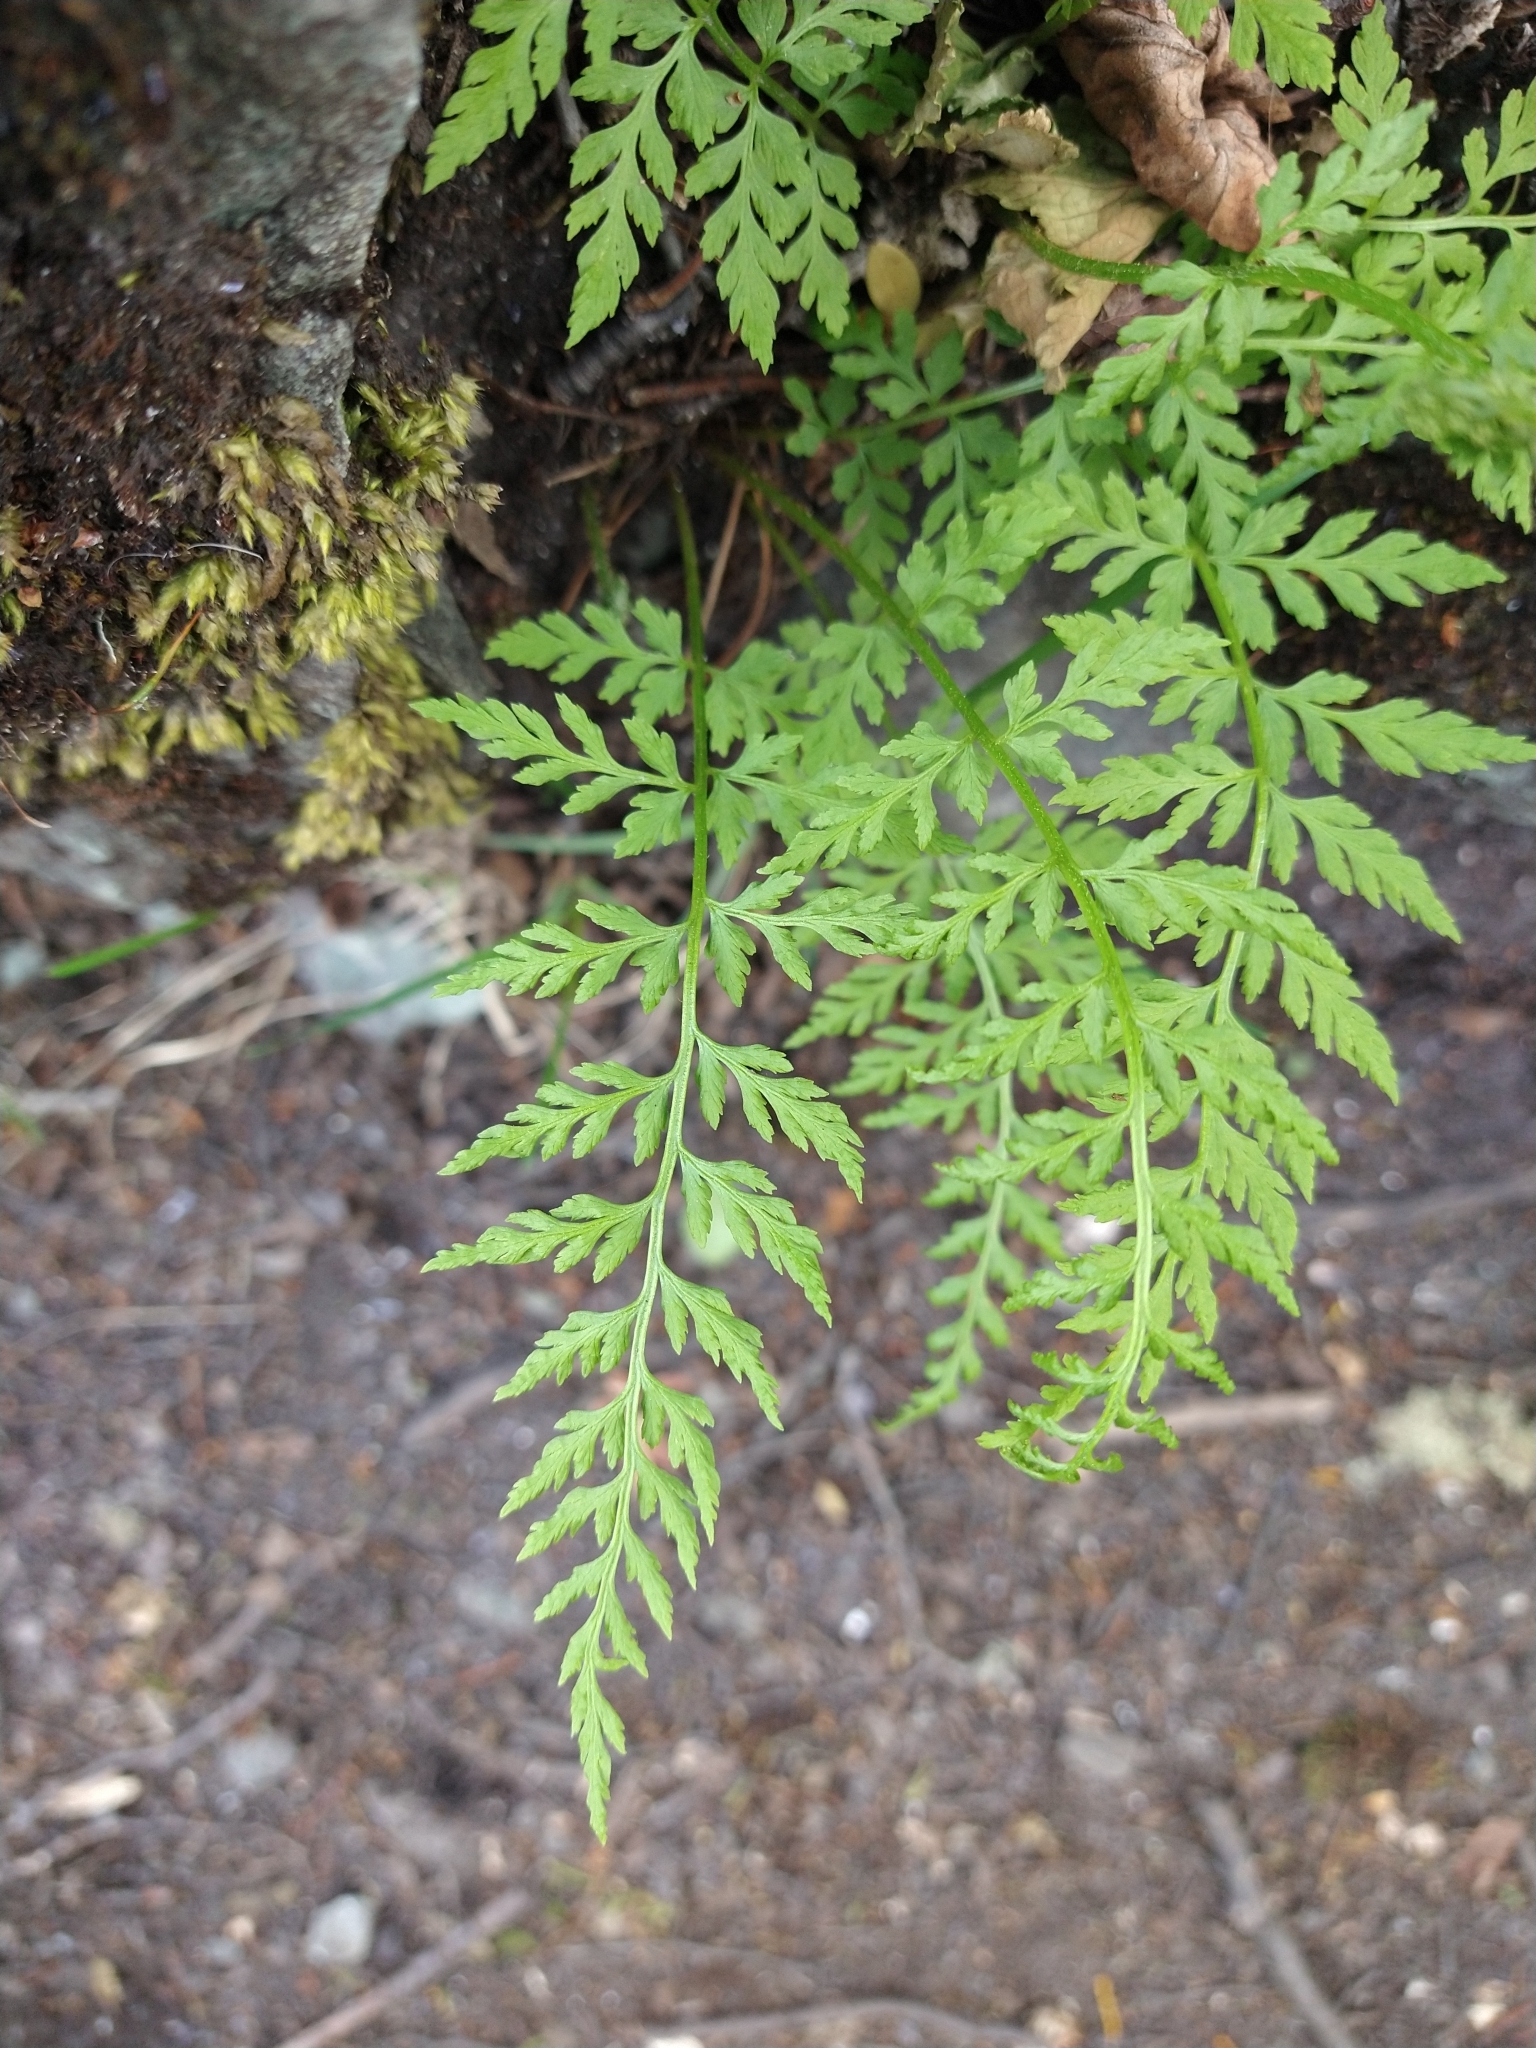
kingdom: Plantae
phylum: Tracheophyta
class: Polypodiopsida
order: Polypodiales
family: Cystopteridaceae
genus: Cystopteris
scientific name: Cystopteris fragilis
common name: Brittle bladder fern
